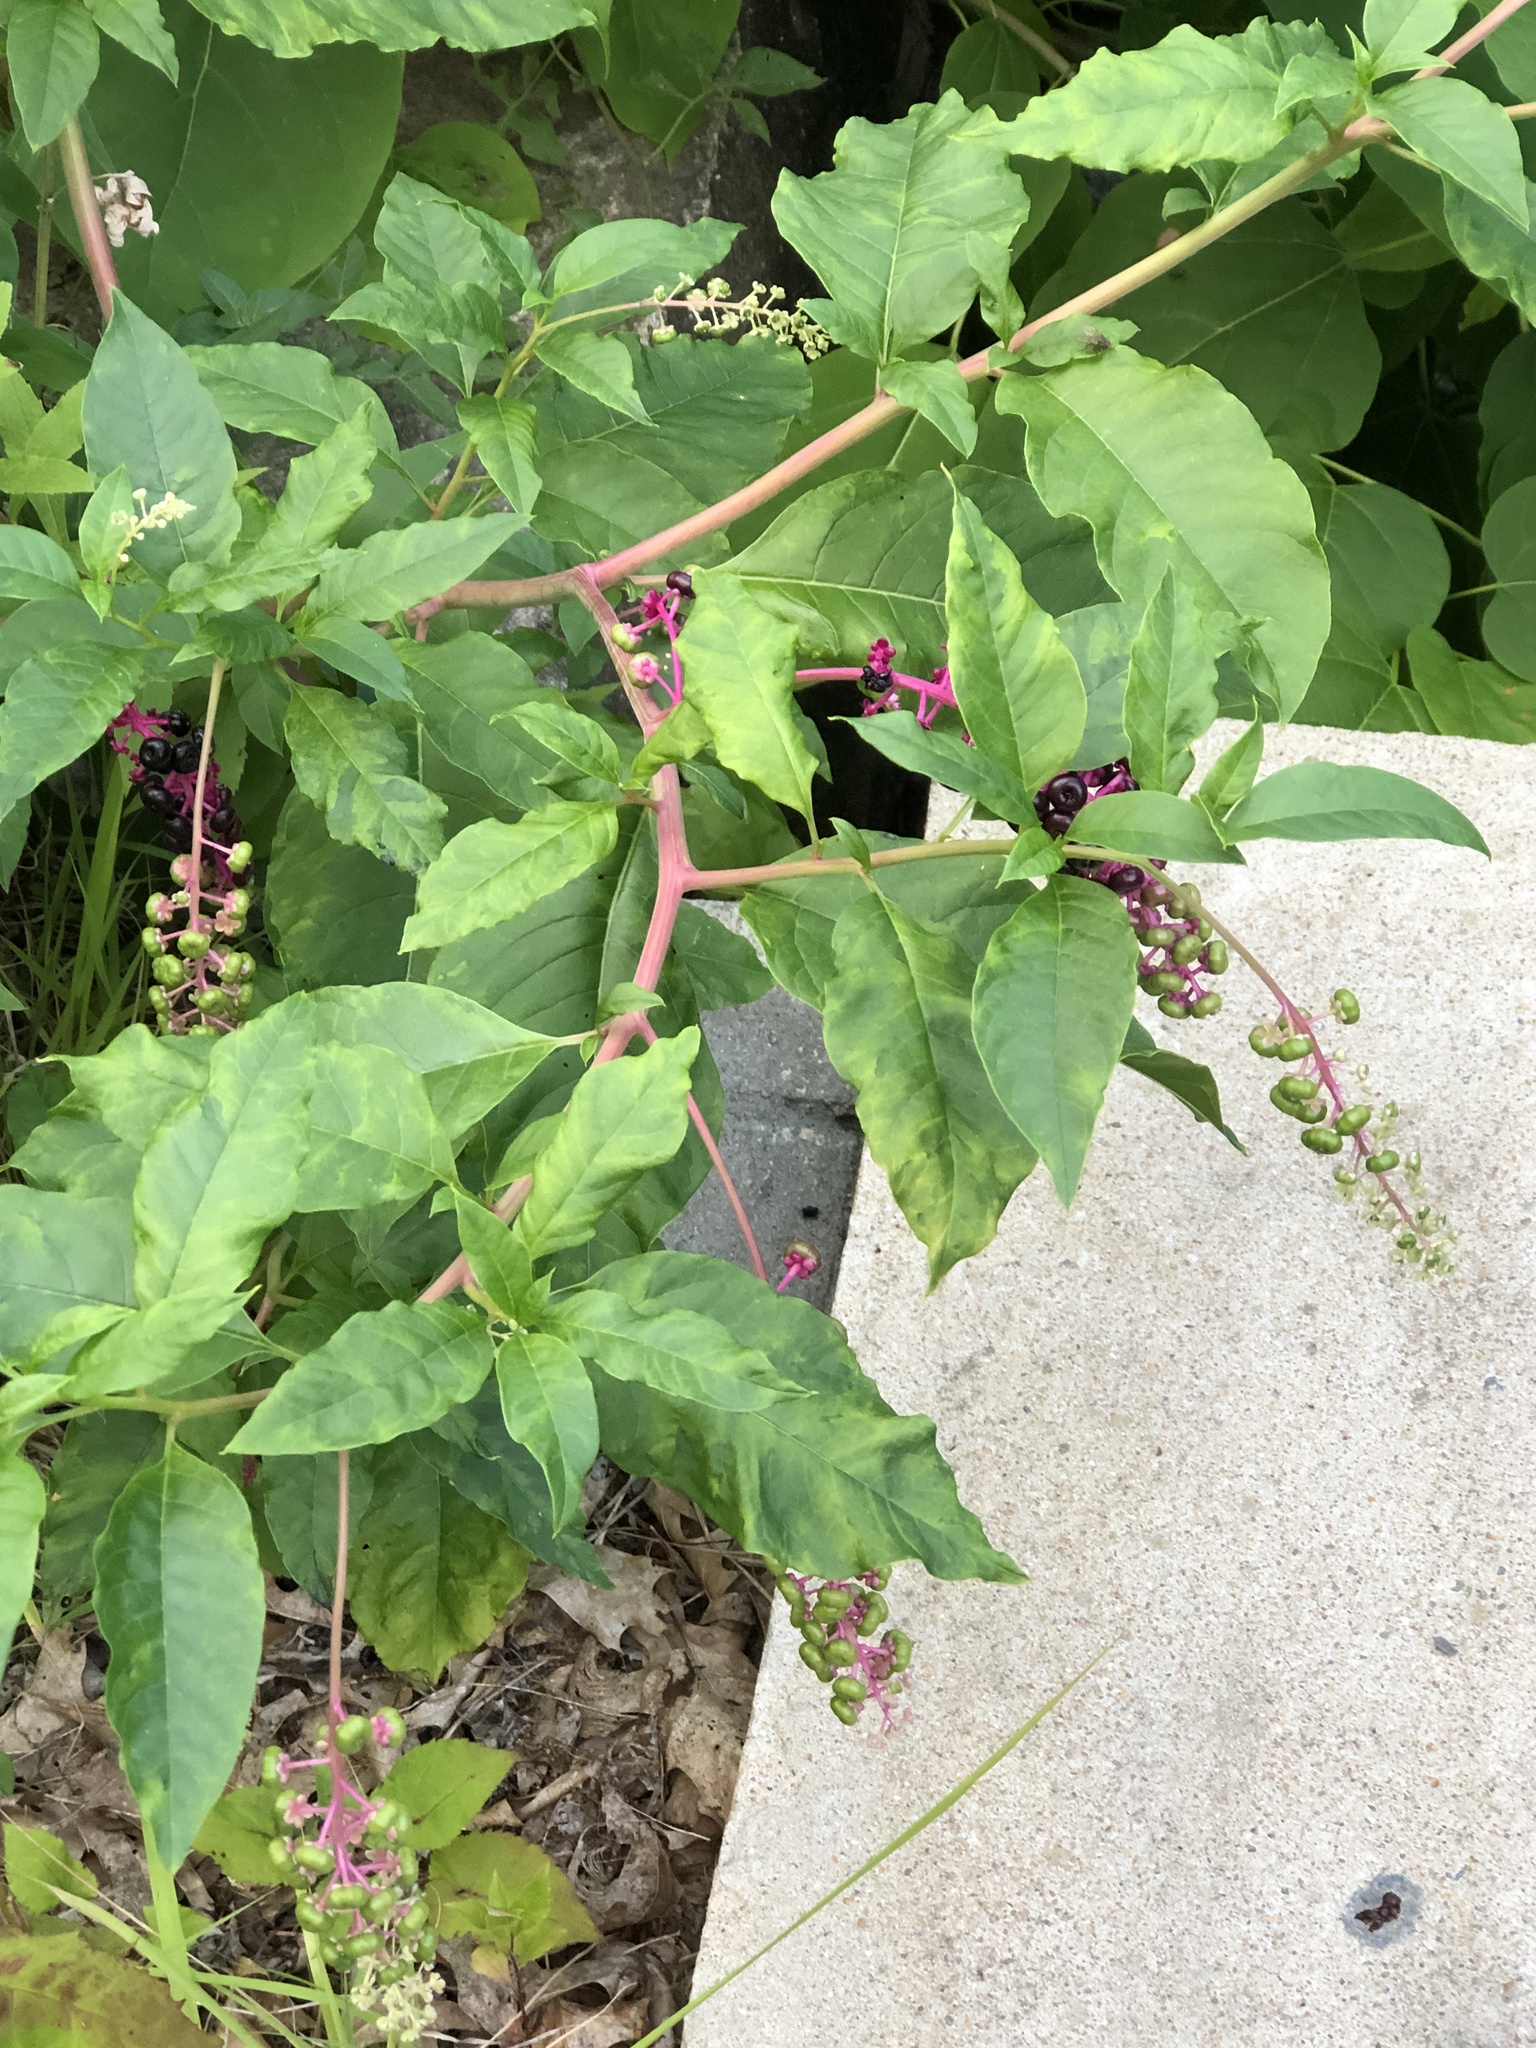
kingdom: Plantae
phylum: Tracheophyta
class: Magnoliopsida
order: Caryophyllales
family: Phytolaccaceae
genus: Phytolacca
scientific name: Phytolacca americana
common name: American pokeweed
